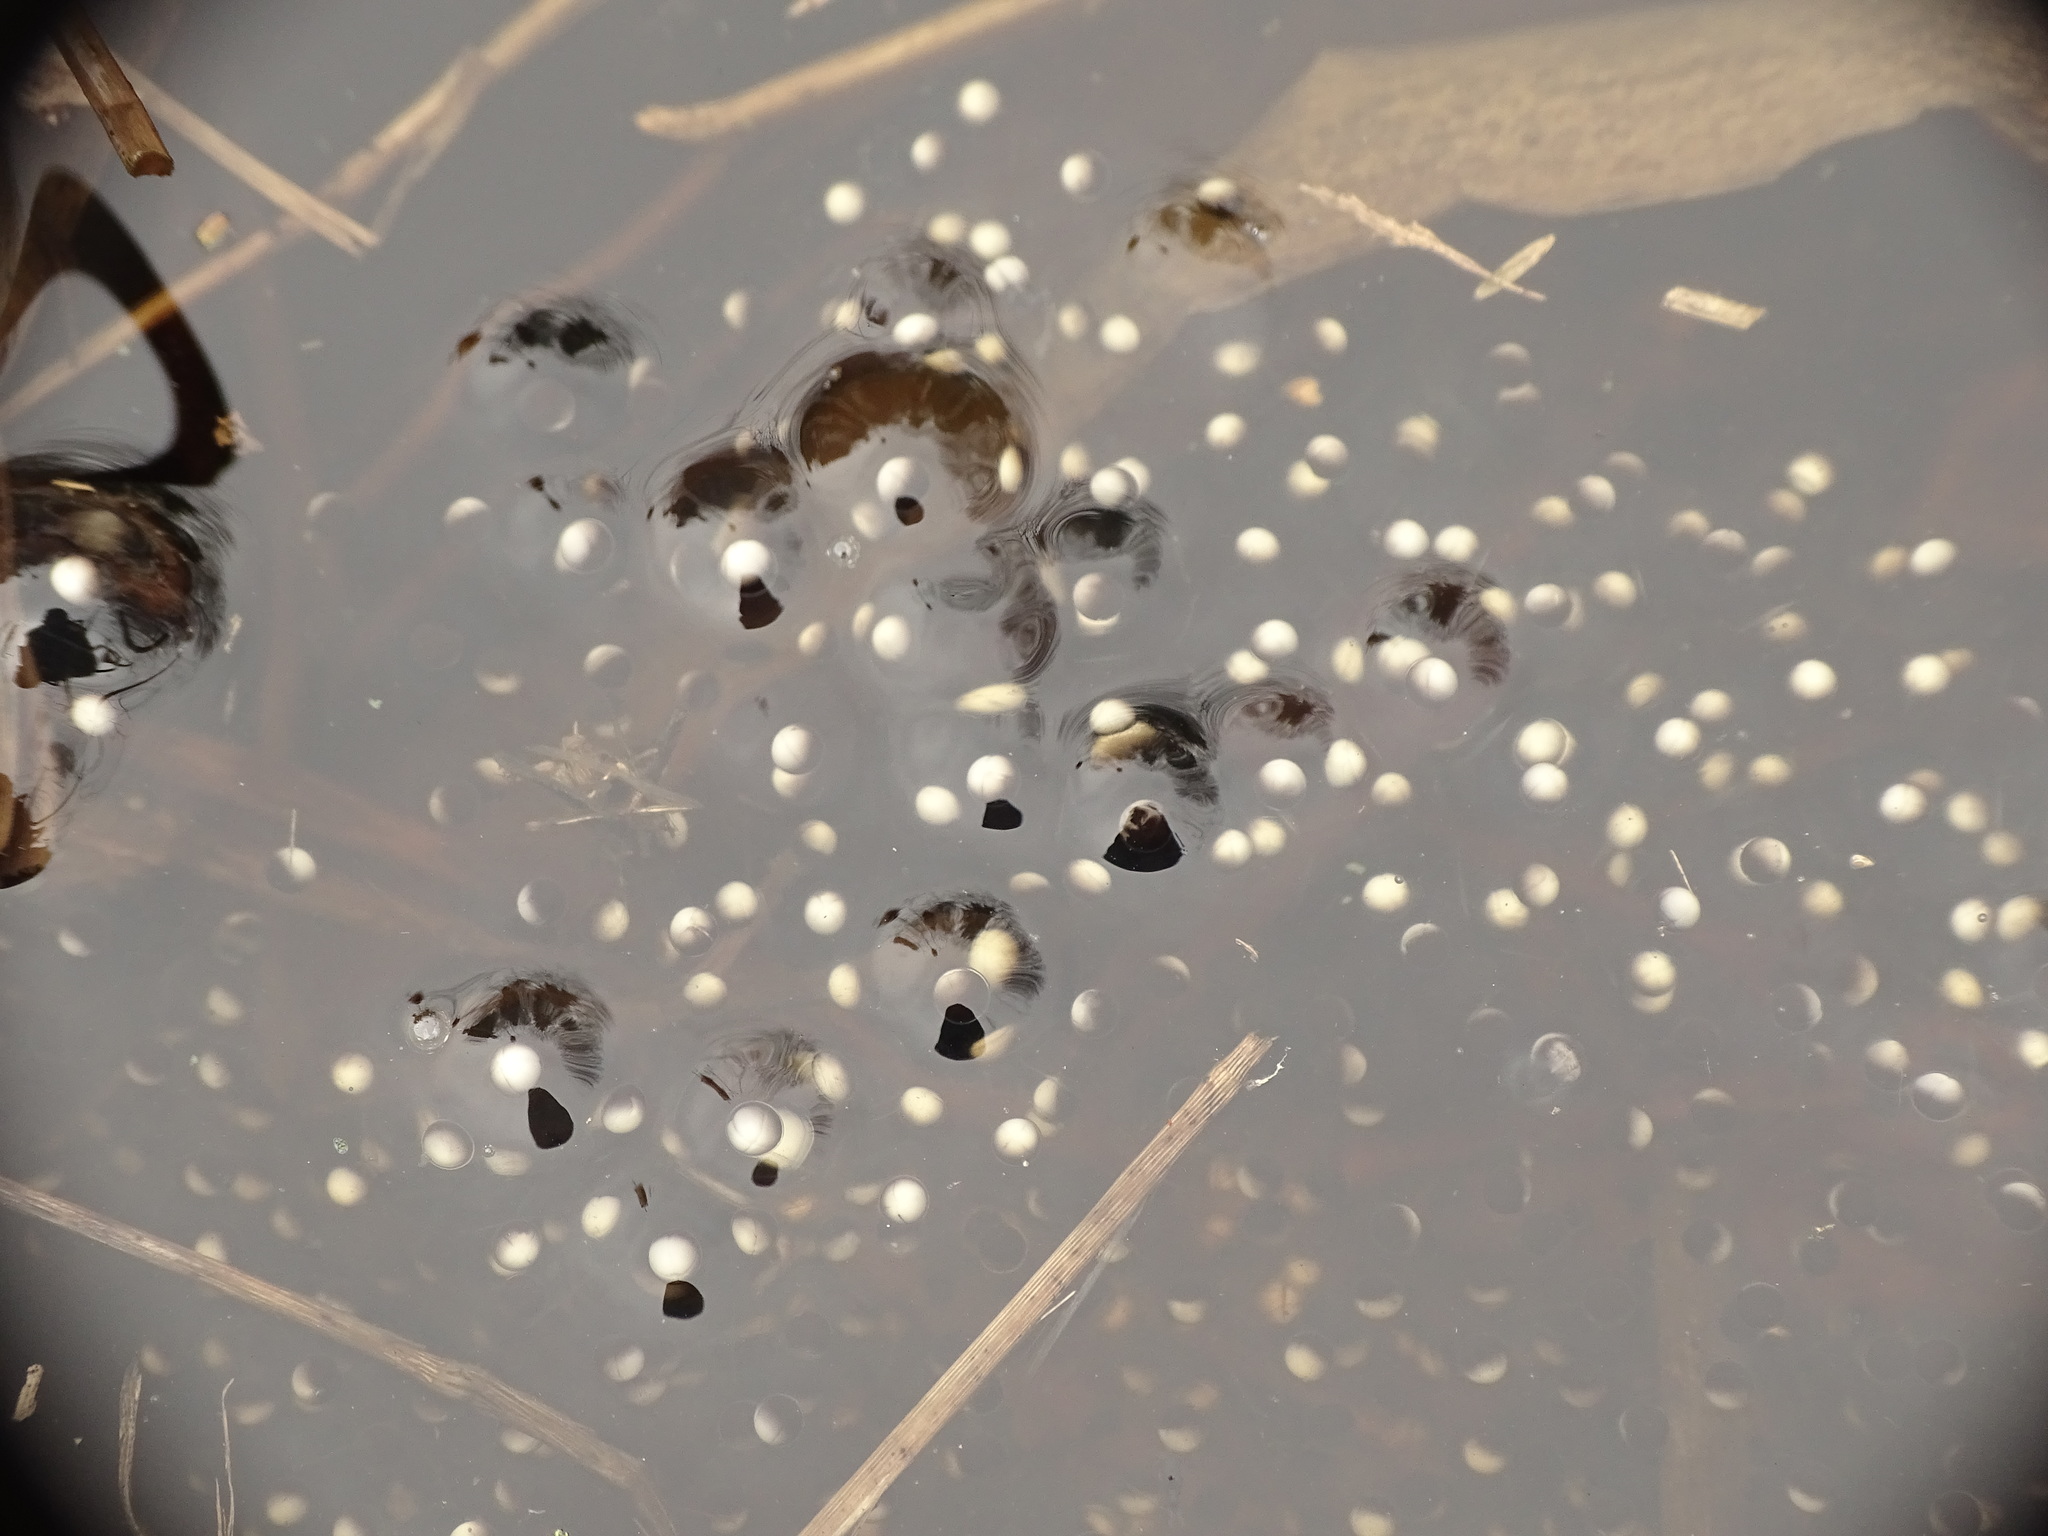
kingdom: Animalia
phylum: Chordata
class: Amphibia
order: Anura
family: Ranidae
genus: Lithobates
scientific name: Lithobates sylvaticus
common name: Wood frog
